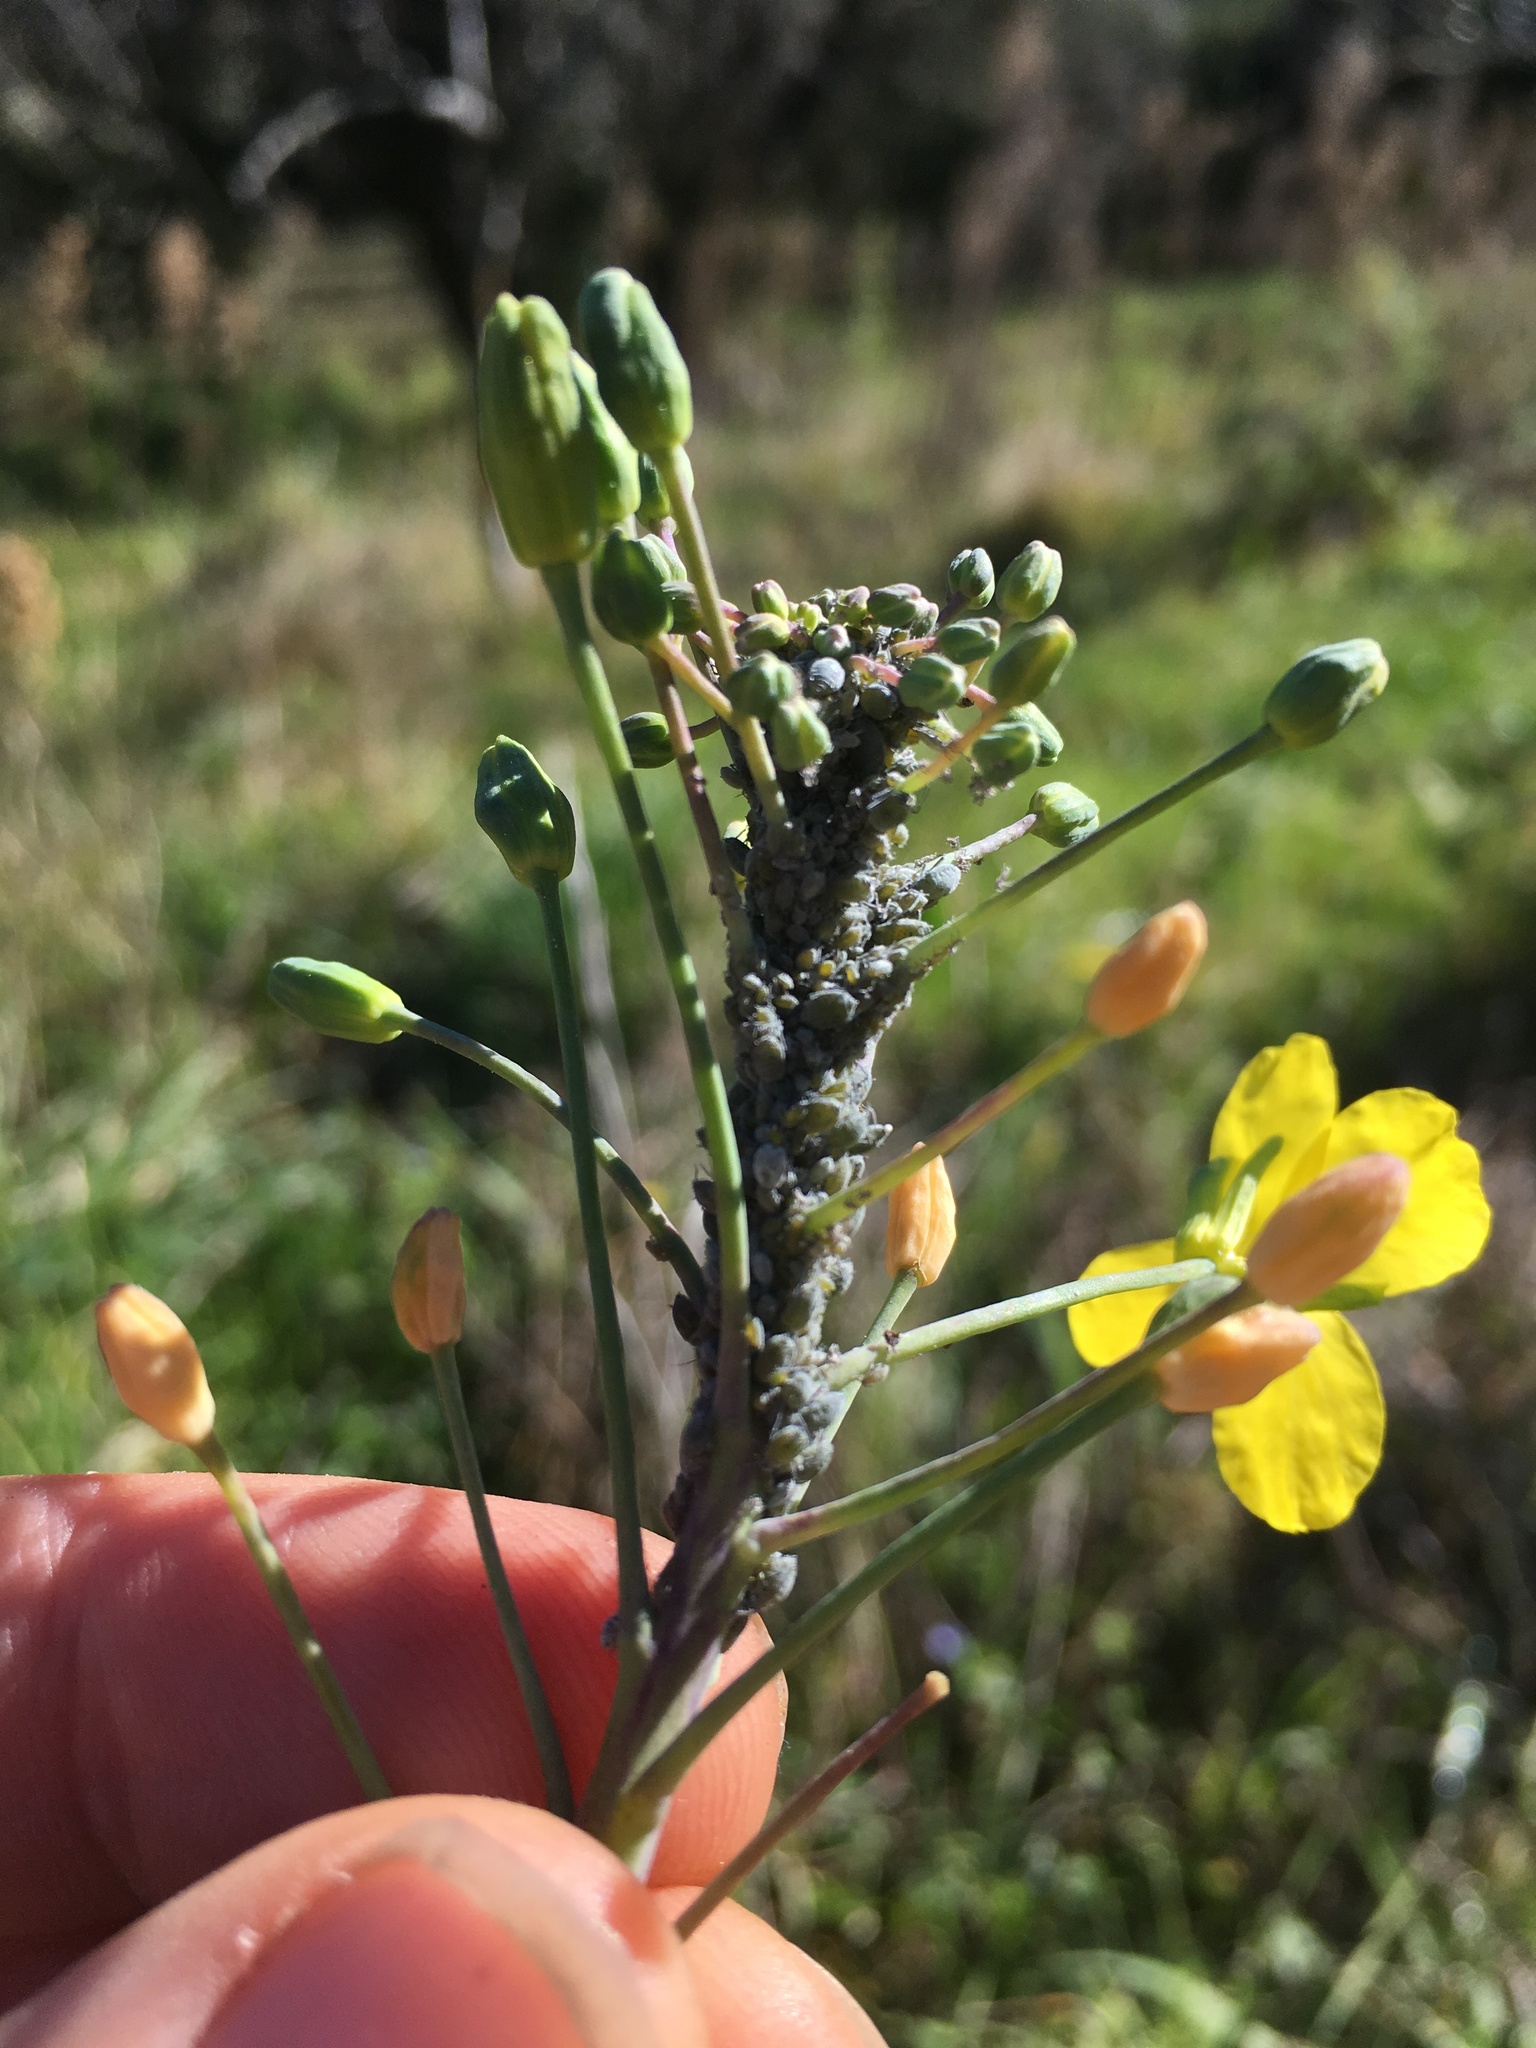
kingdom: Animalia
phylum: Arthropoda
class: Insecta
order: Hemiptera
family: Aphididae
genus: Brevicoryne
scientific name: Brevicoryne brassicae
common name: Cabbage aphid
